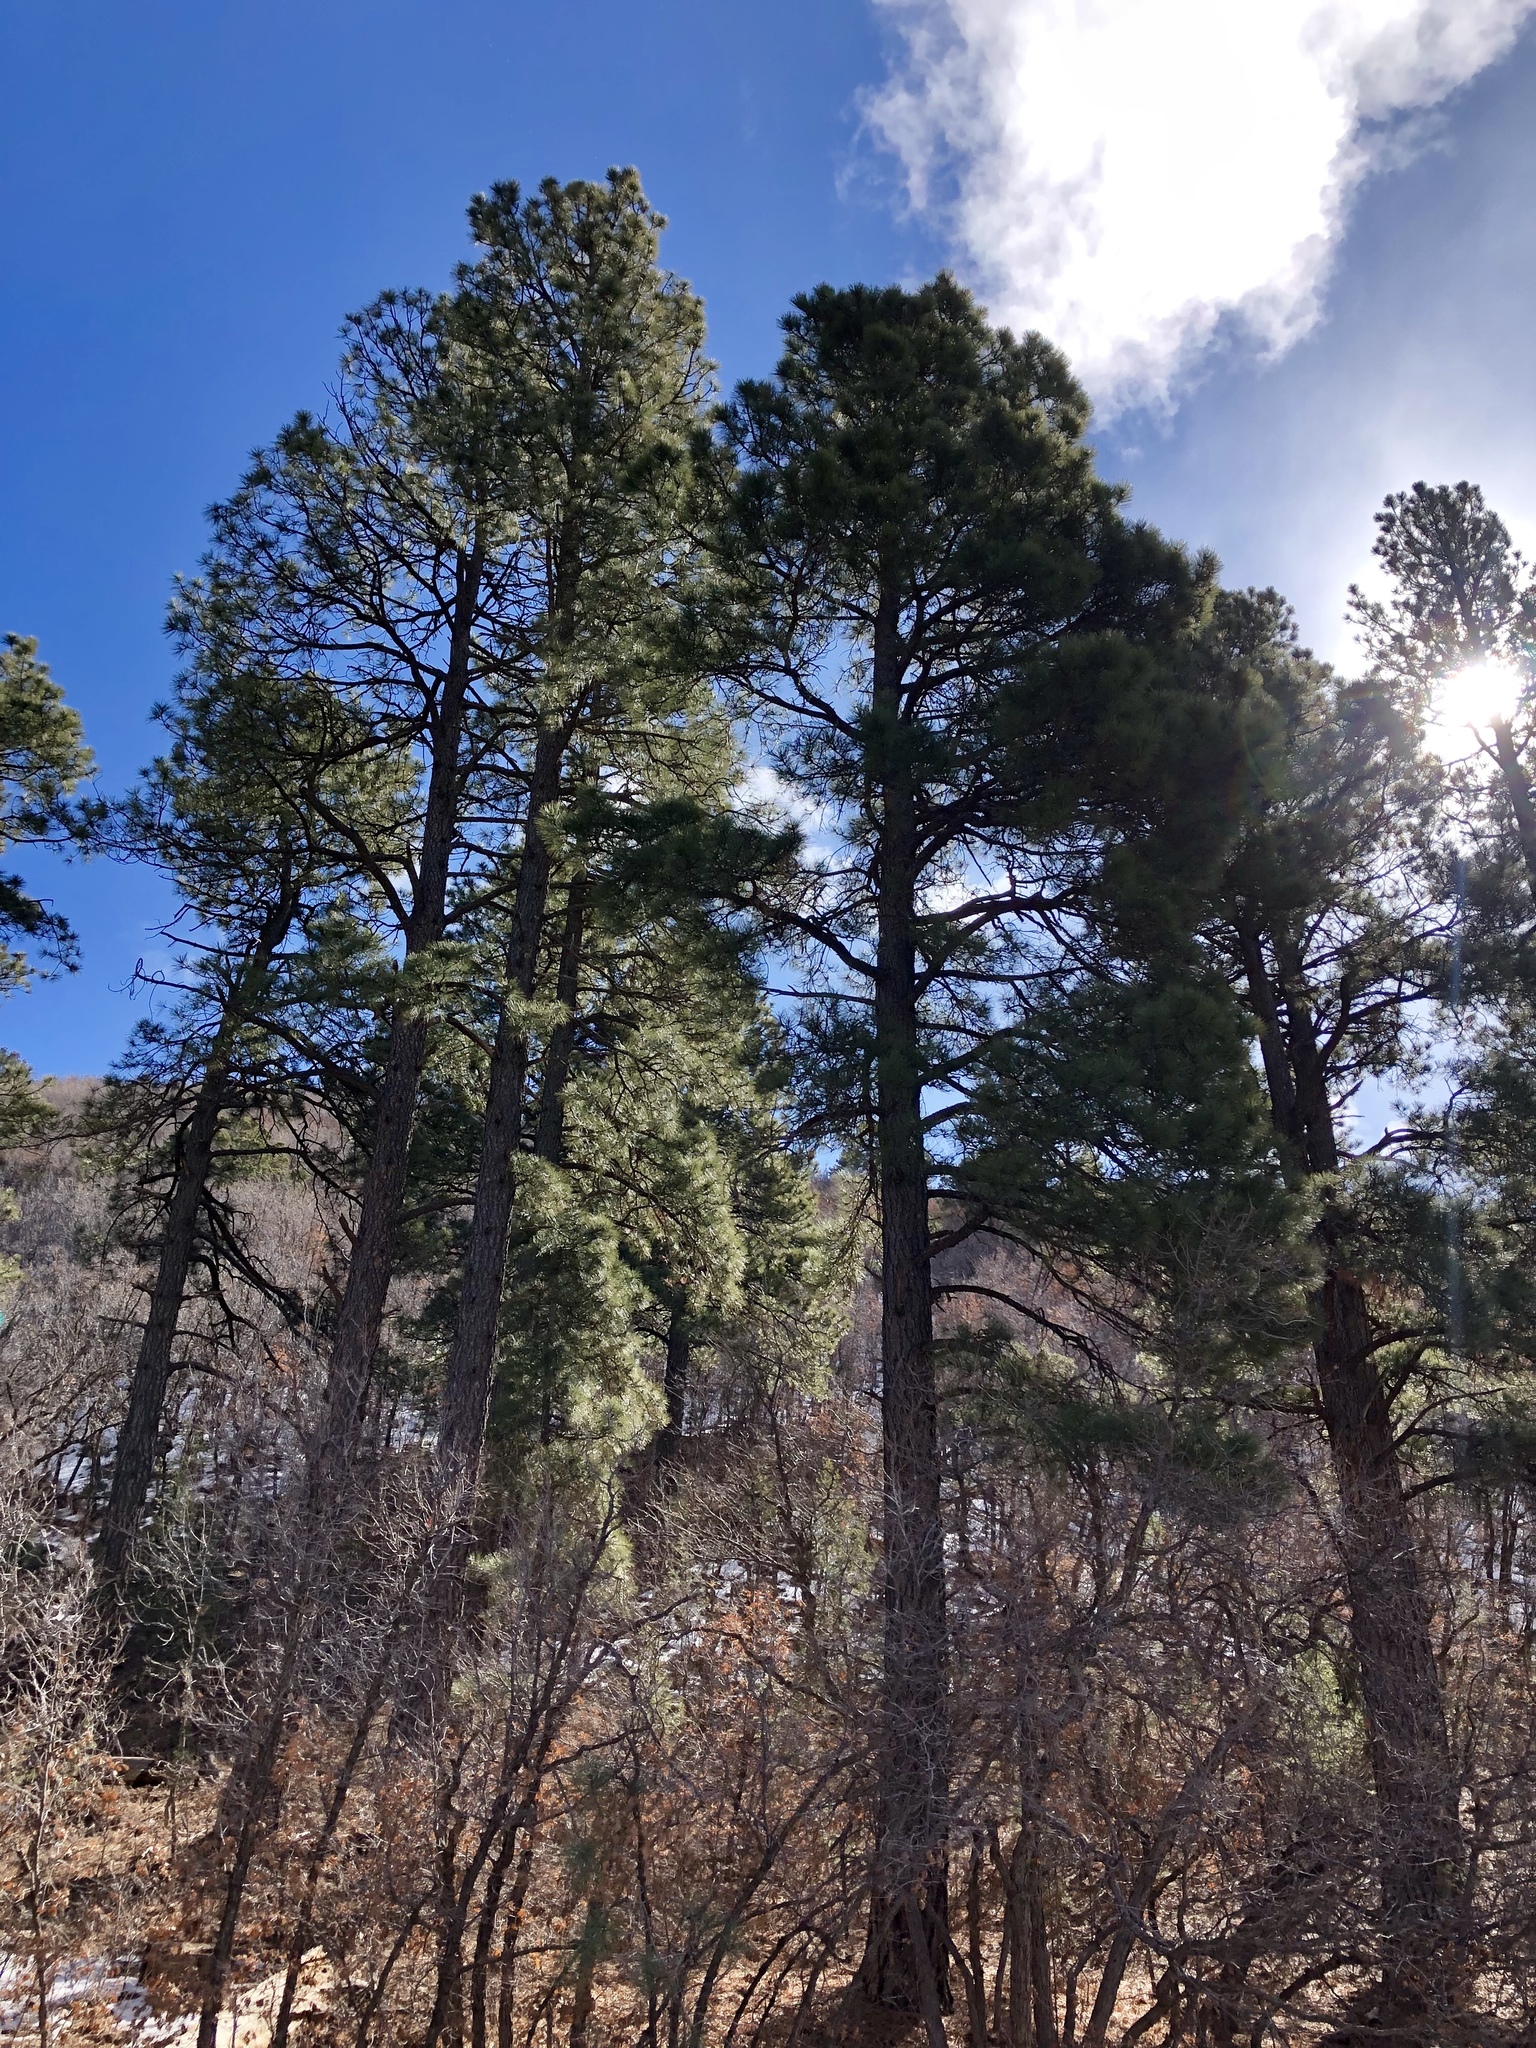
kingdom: Plantae
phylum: Tracheophyta
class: Pinopsida
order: Pinales
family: Pinaceae
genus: Pinus
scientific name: Pinus ponderosa
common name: Western yellow-pine
